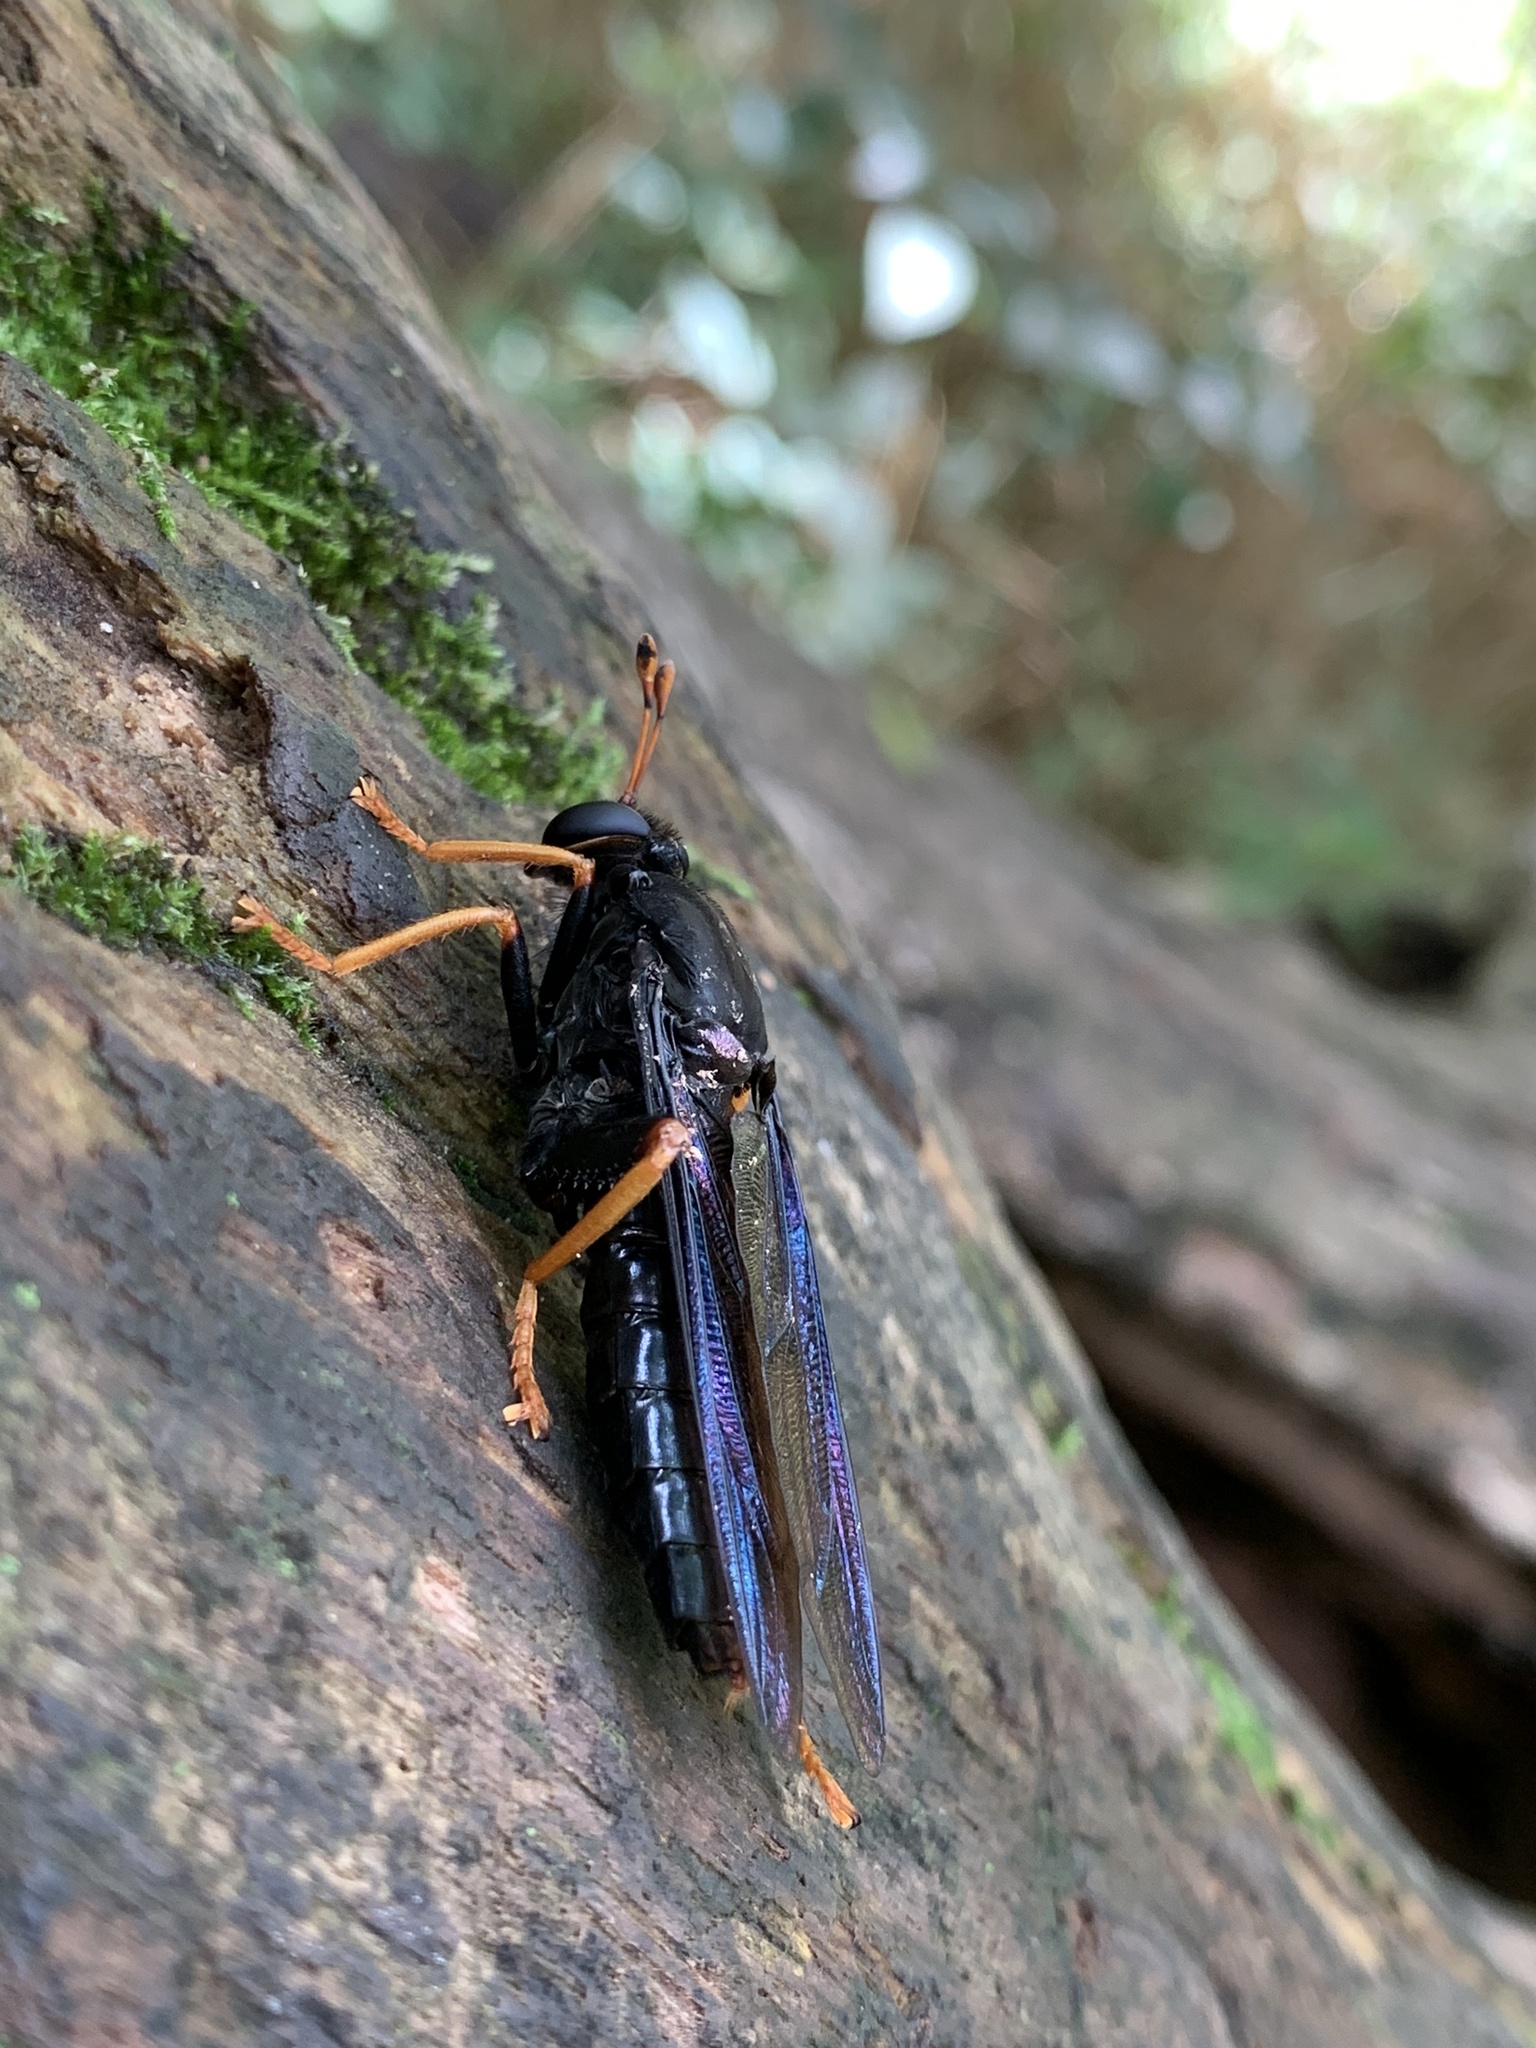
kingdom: Animalia
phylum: Arthropoda
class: Insecta
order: Diptera
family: Mydidae
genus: Mydas
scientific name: Mydas tibialis
